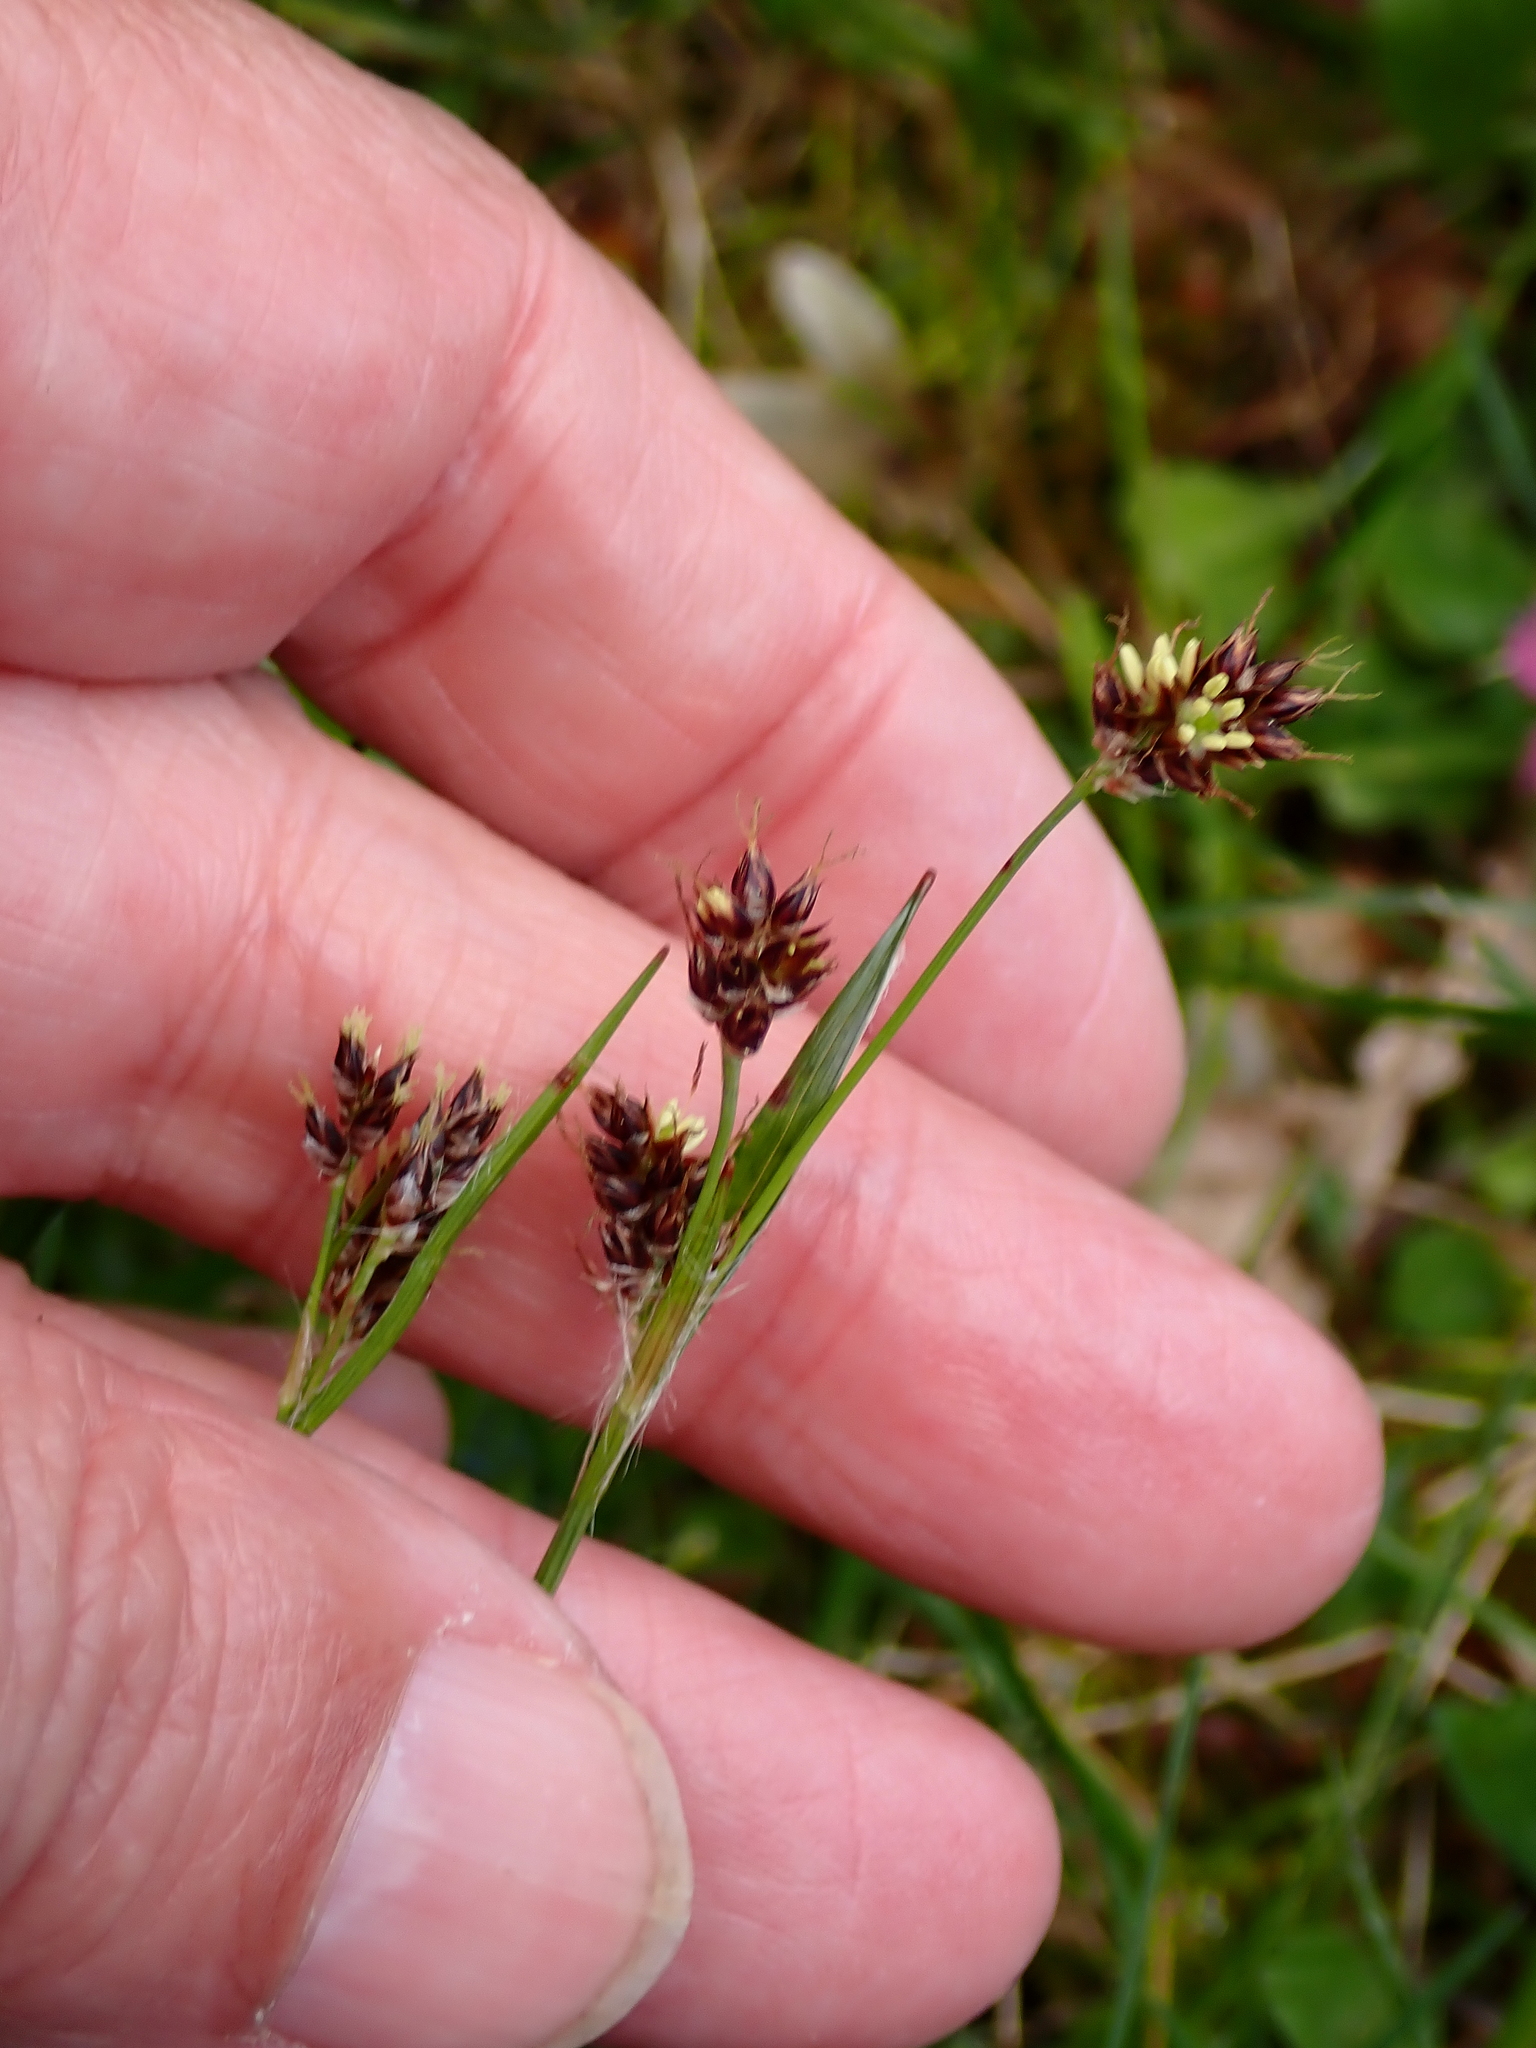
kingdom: Plantae
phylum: Tracheophyta
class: Liliopsida
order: Poales
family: Juncaceae
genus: Luzula
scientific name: Luzula campestris
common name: Field wood-rush
